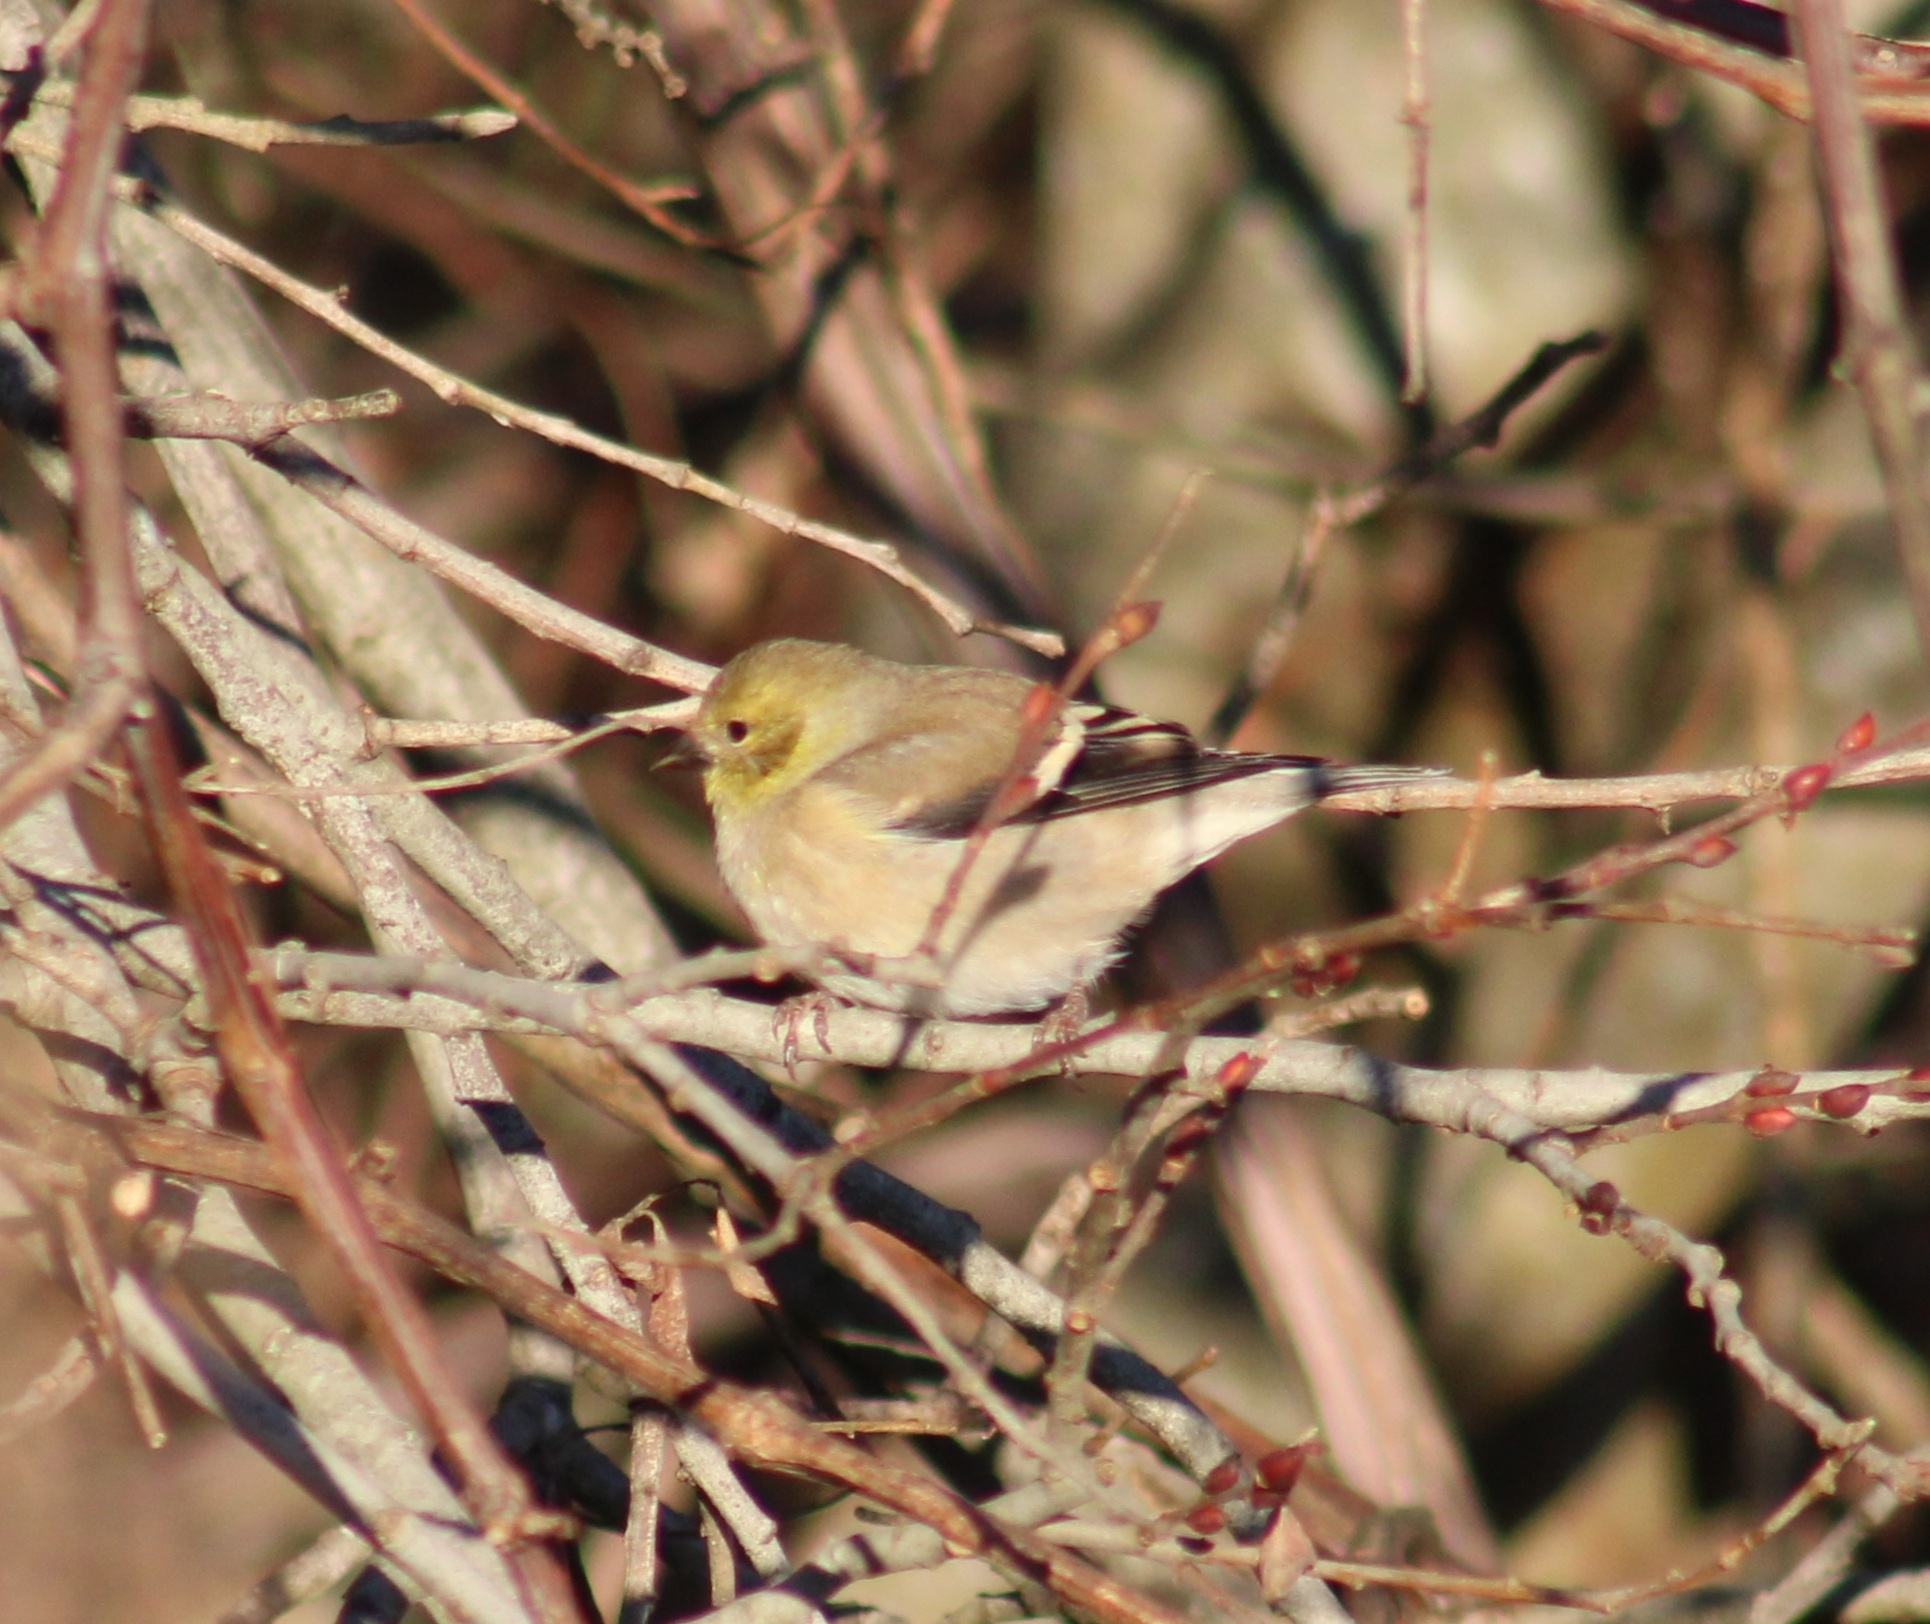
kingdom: Animalia
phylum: Chordata
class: Aves
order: Passeriformes
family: Fringillidae
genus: Spinus
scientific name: Spinus tristis
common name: American goldfinch
